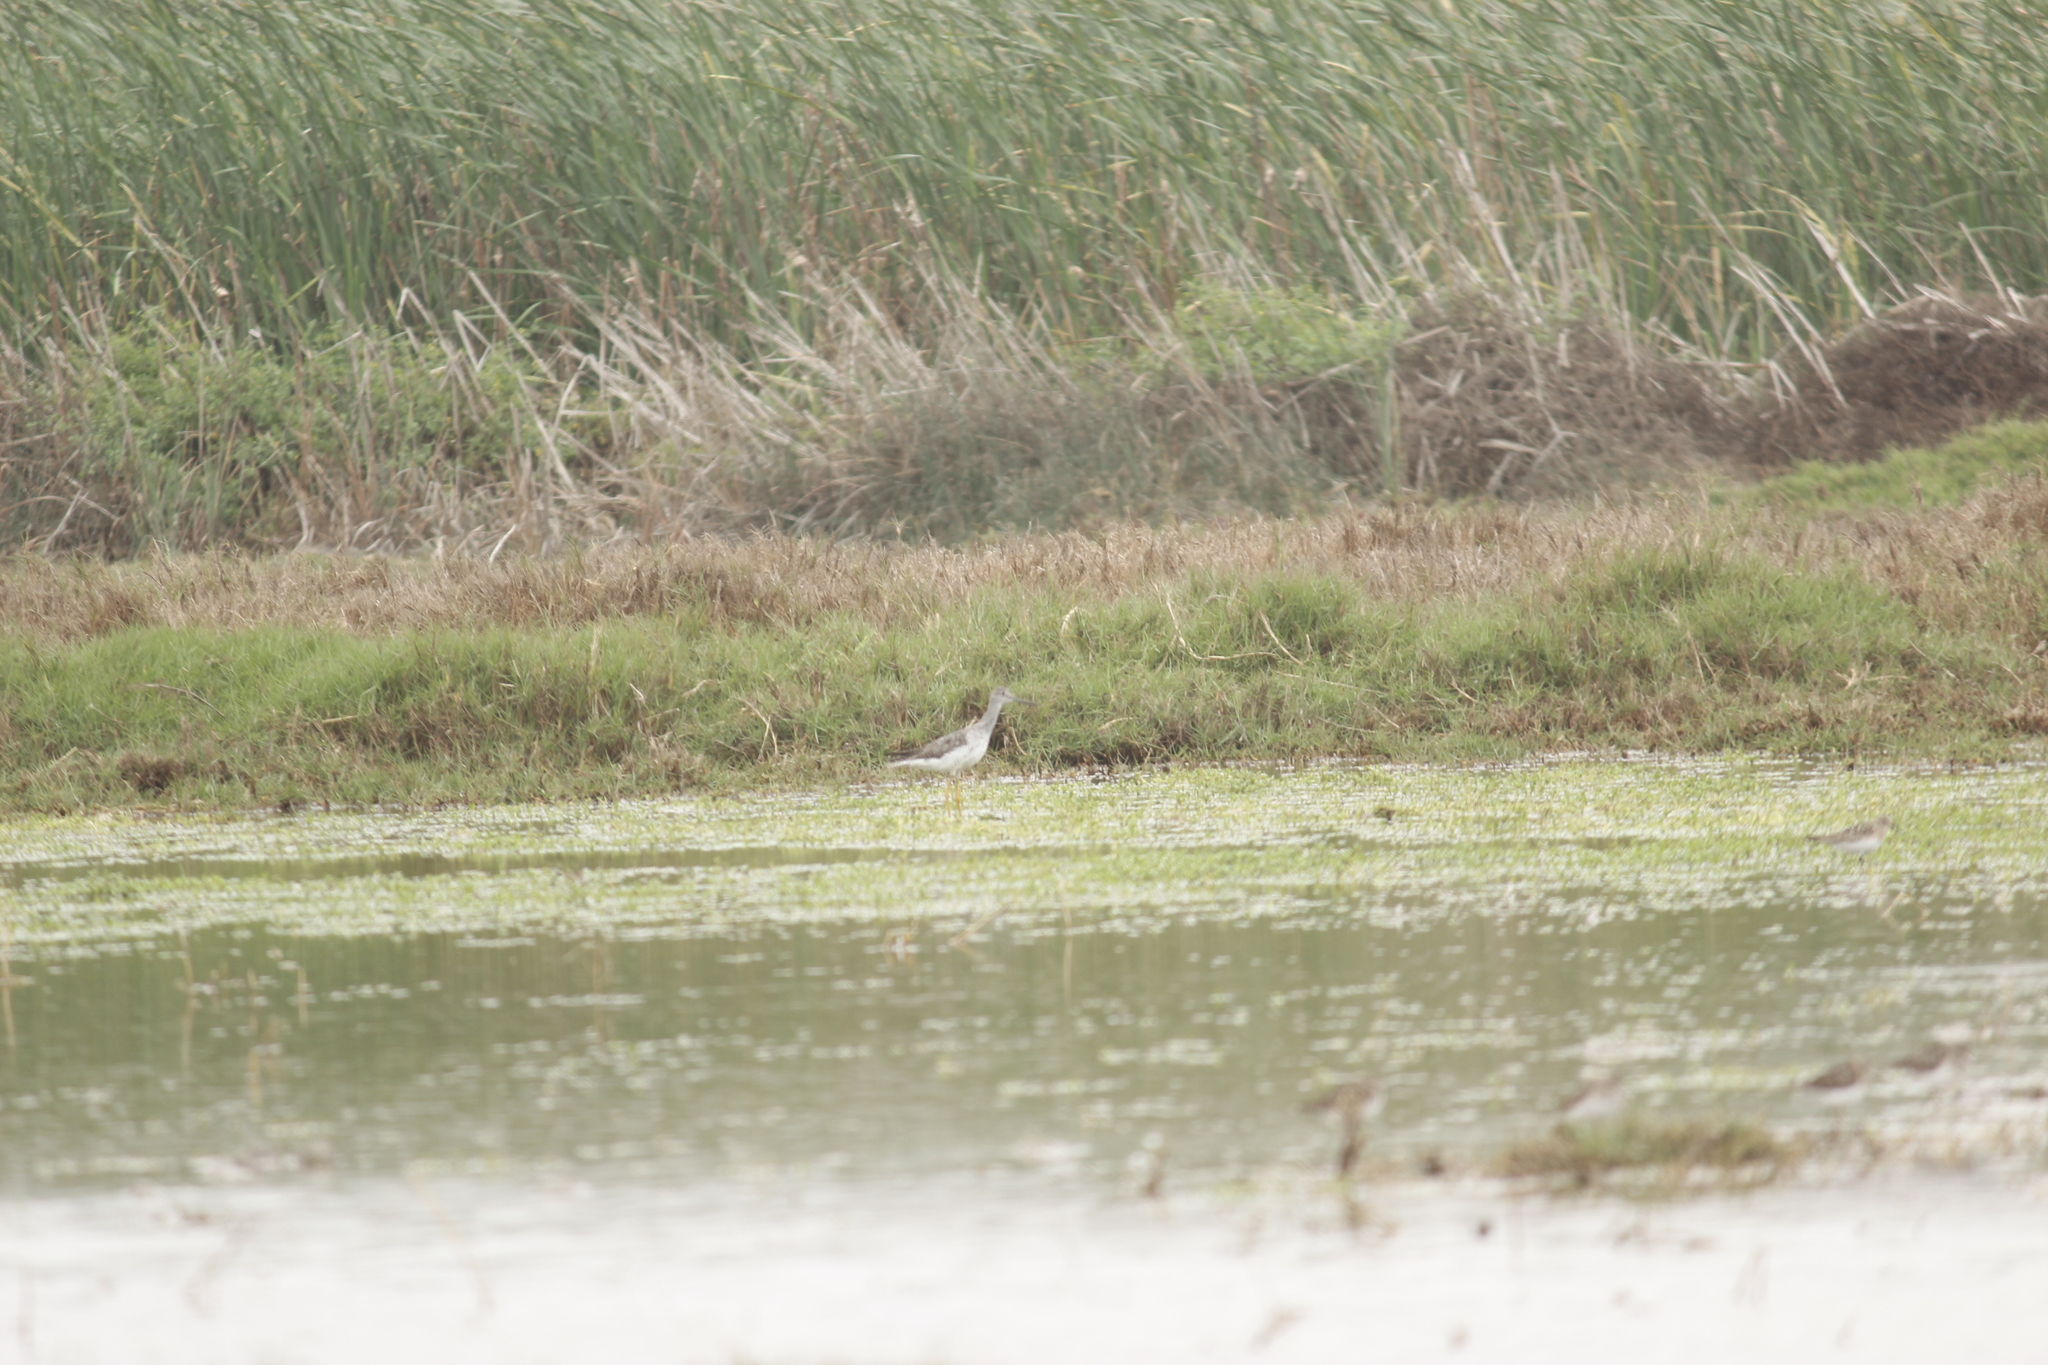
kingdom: Animalia
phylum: Chordata
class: Aves
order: Charadriiformes
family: Scolopacidae
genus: Tringa
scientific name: Tringa melanoleuca
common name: Greater yellowlegs
